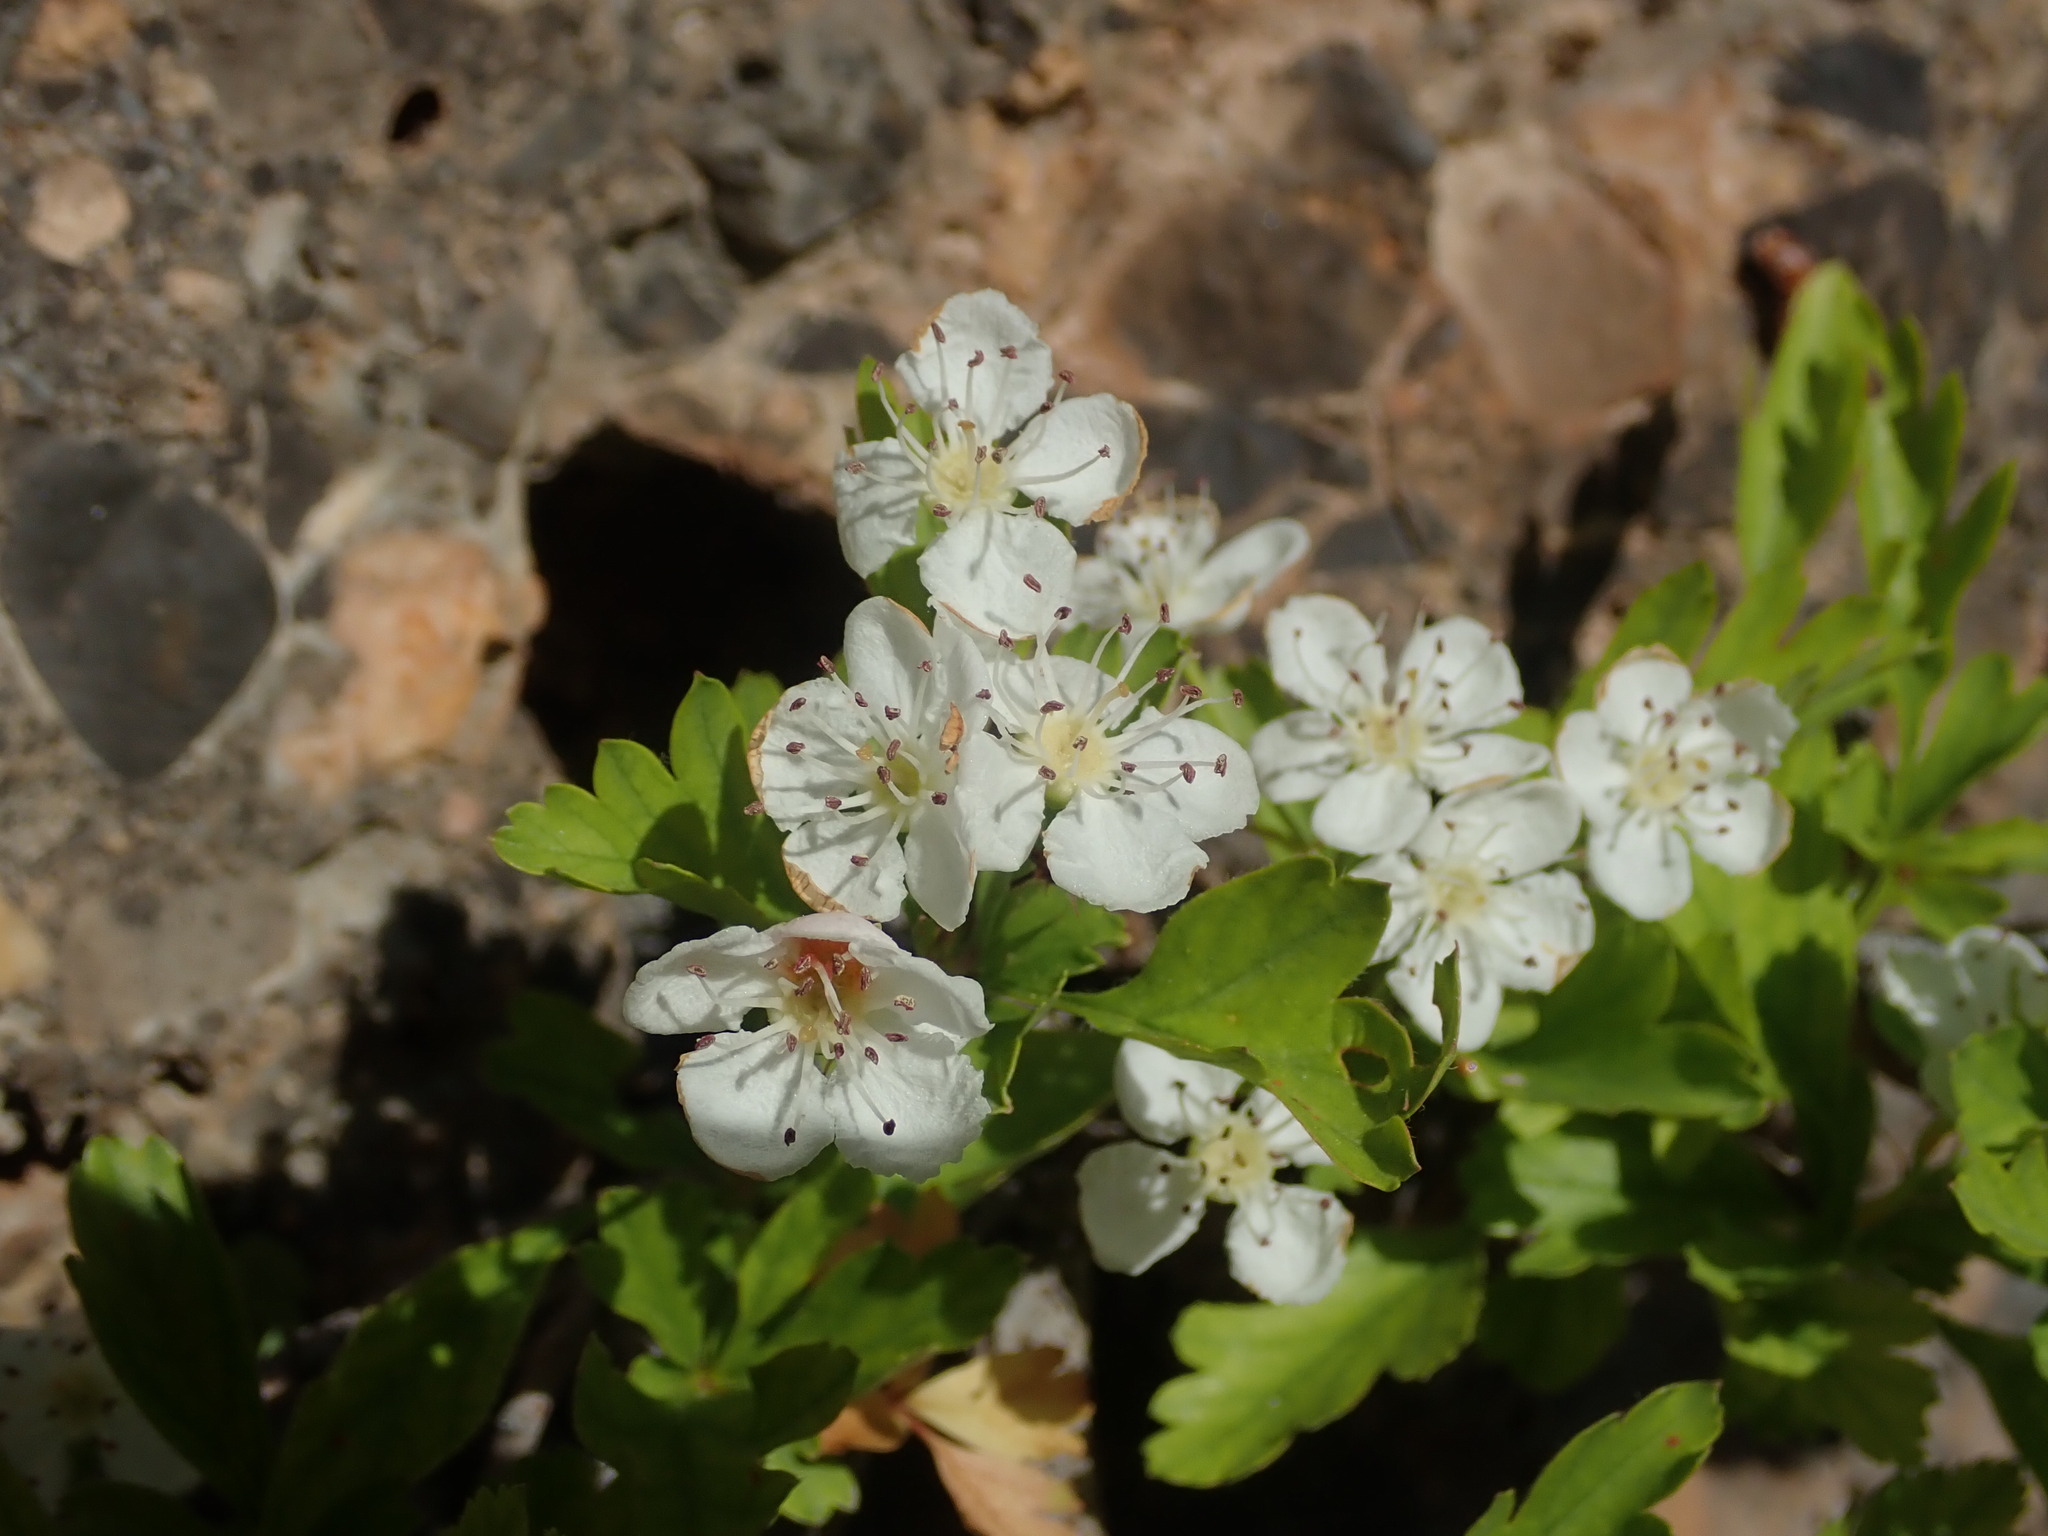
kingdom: Plantae
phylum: Tracheophyta
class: Magnoliopsida
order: Rosales
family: Rosaceae
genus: Crataegus
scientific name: Crataegus monogyna
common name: Hawthorn
